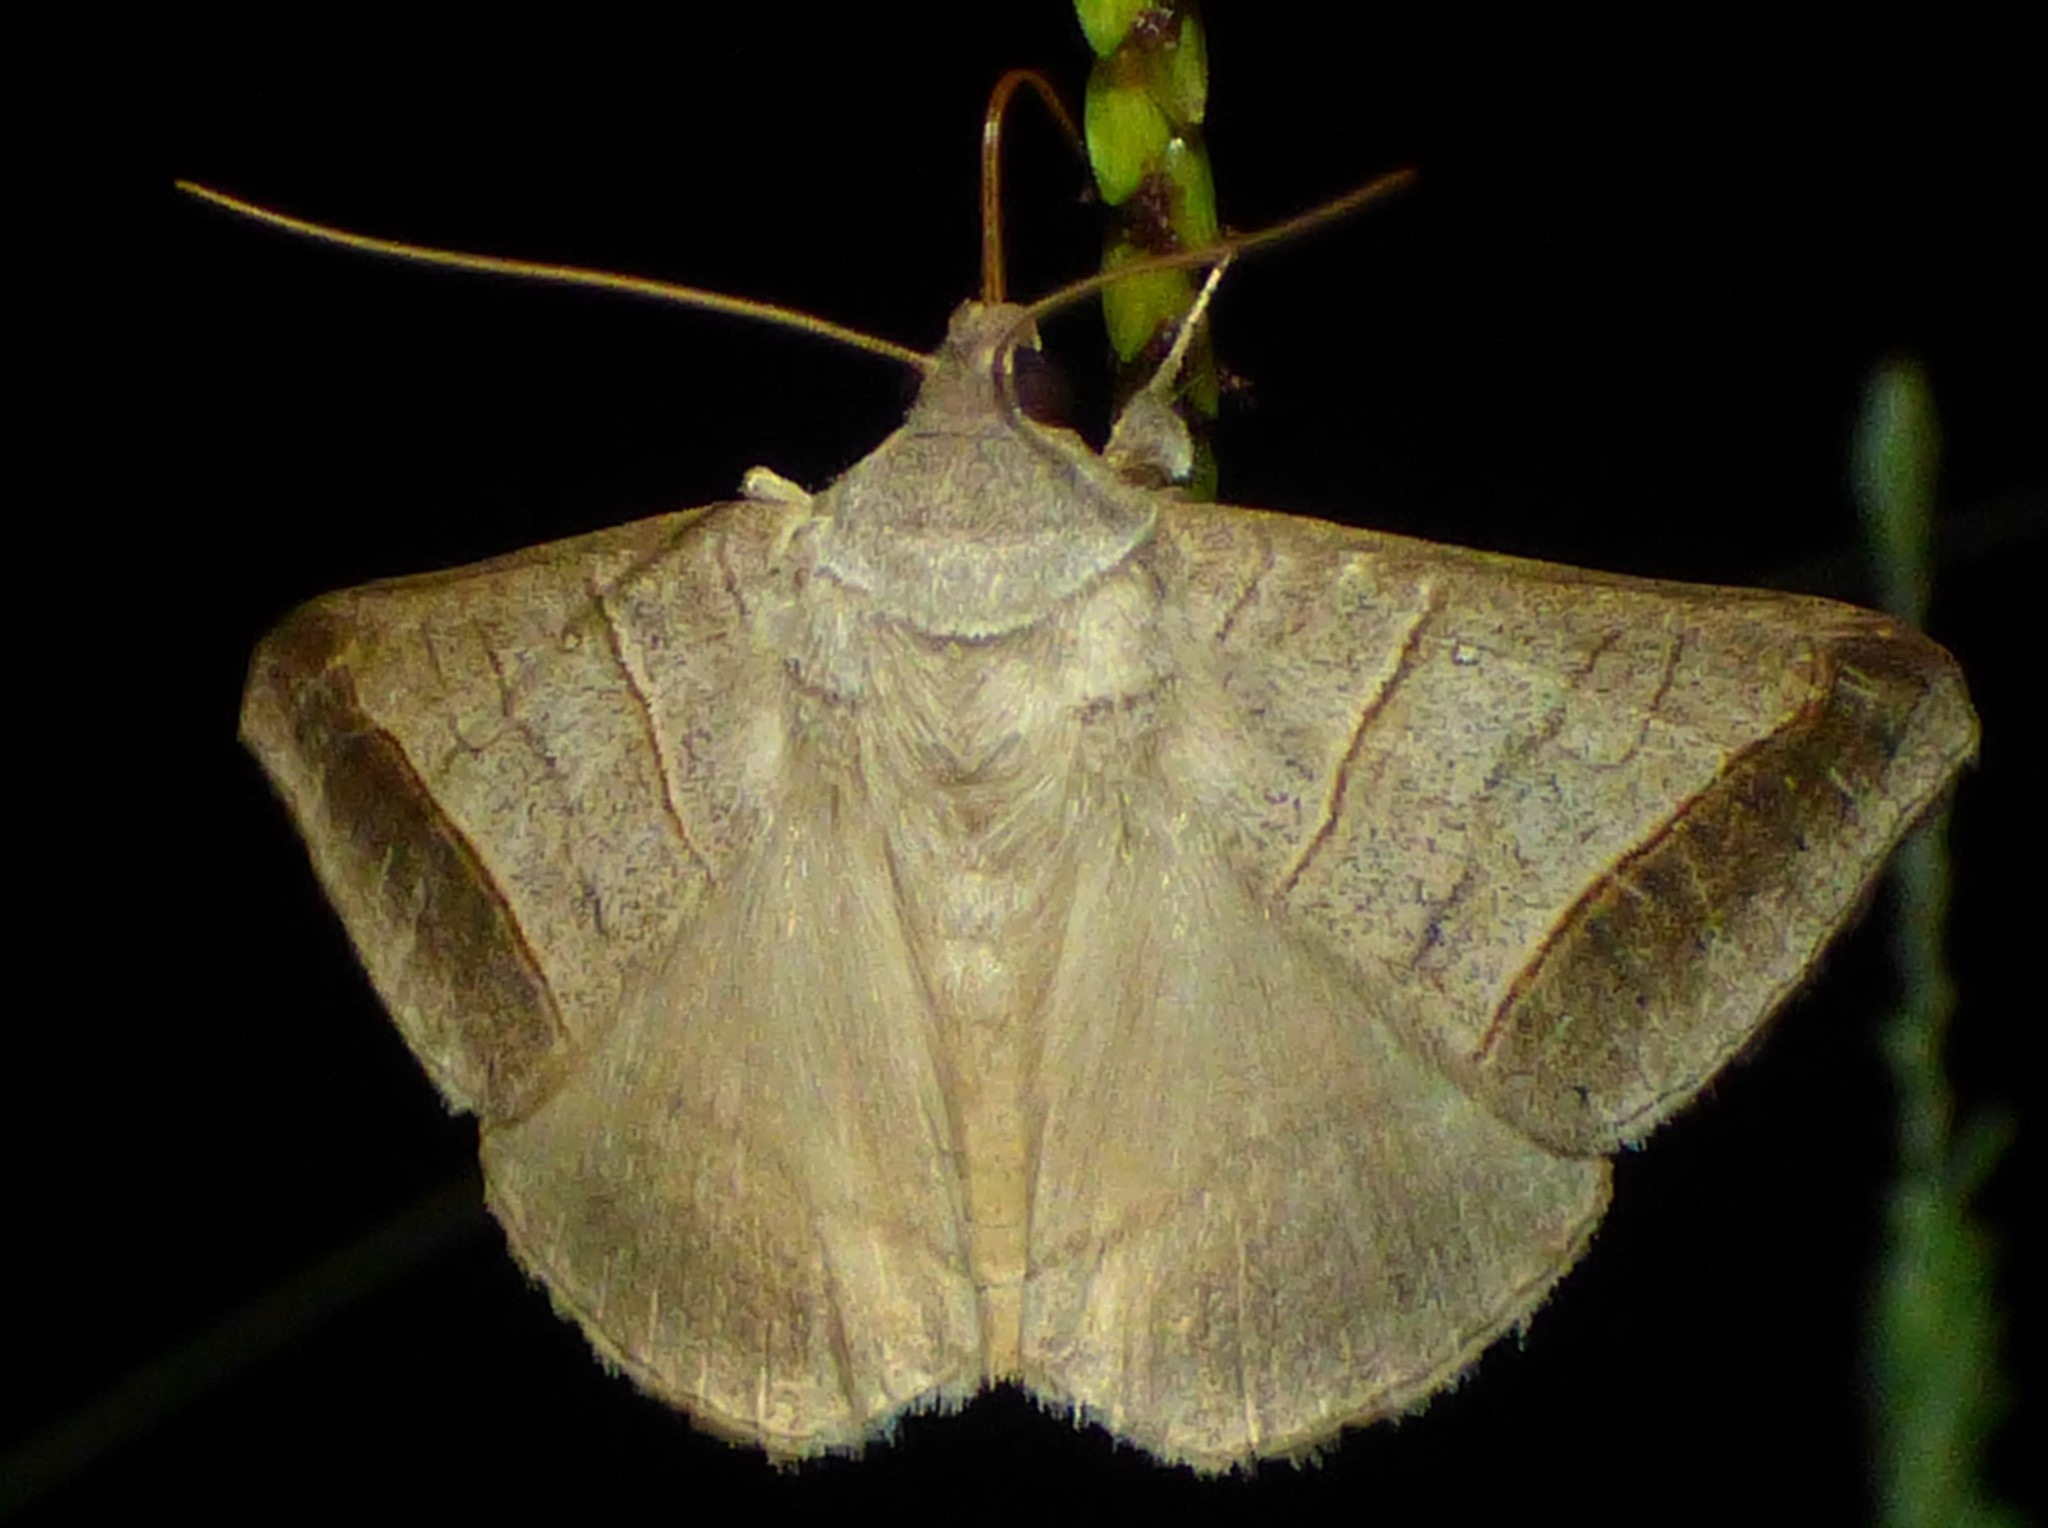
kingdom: Animalia
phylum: Arthropoda
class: Insecta
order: Lepidoptera
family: Erebidae
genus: Mocis
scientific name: Mocis texana
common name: Texas mocis moth
